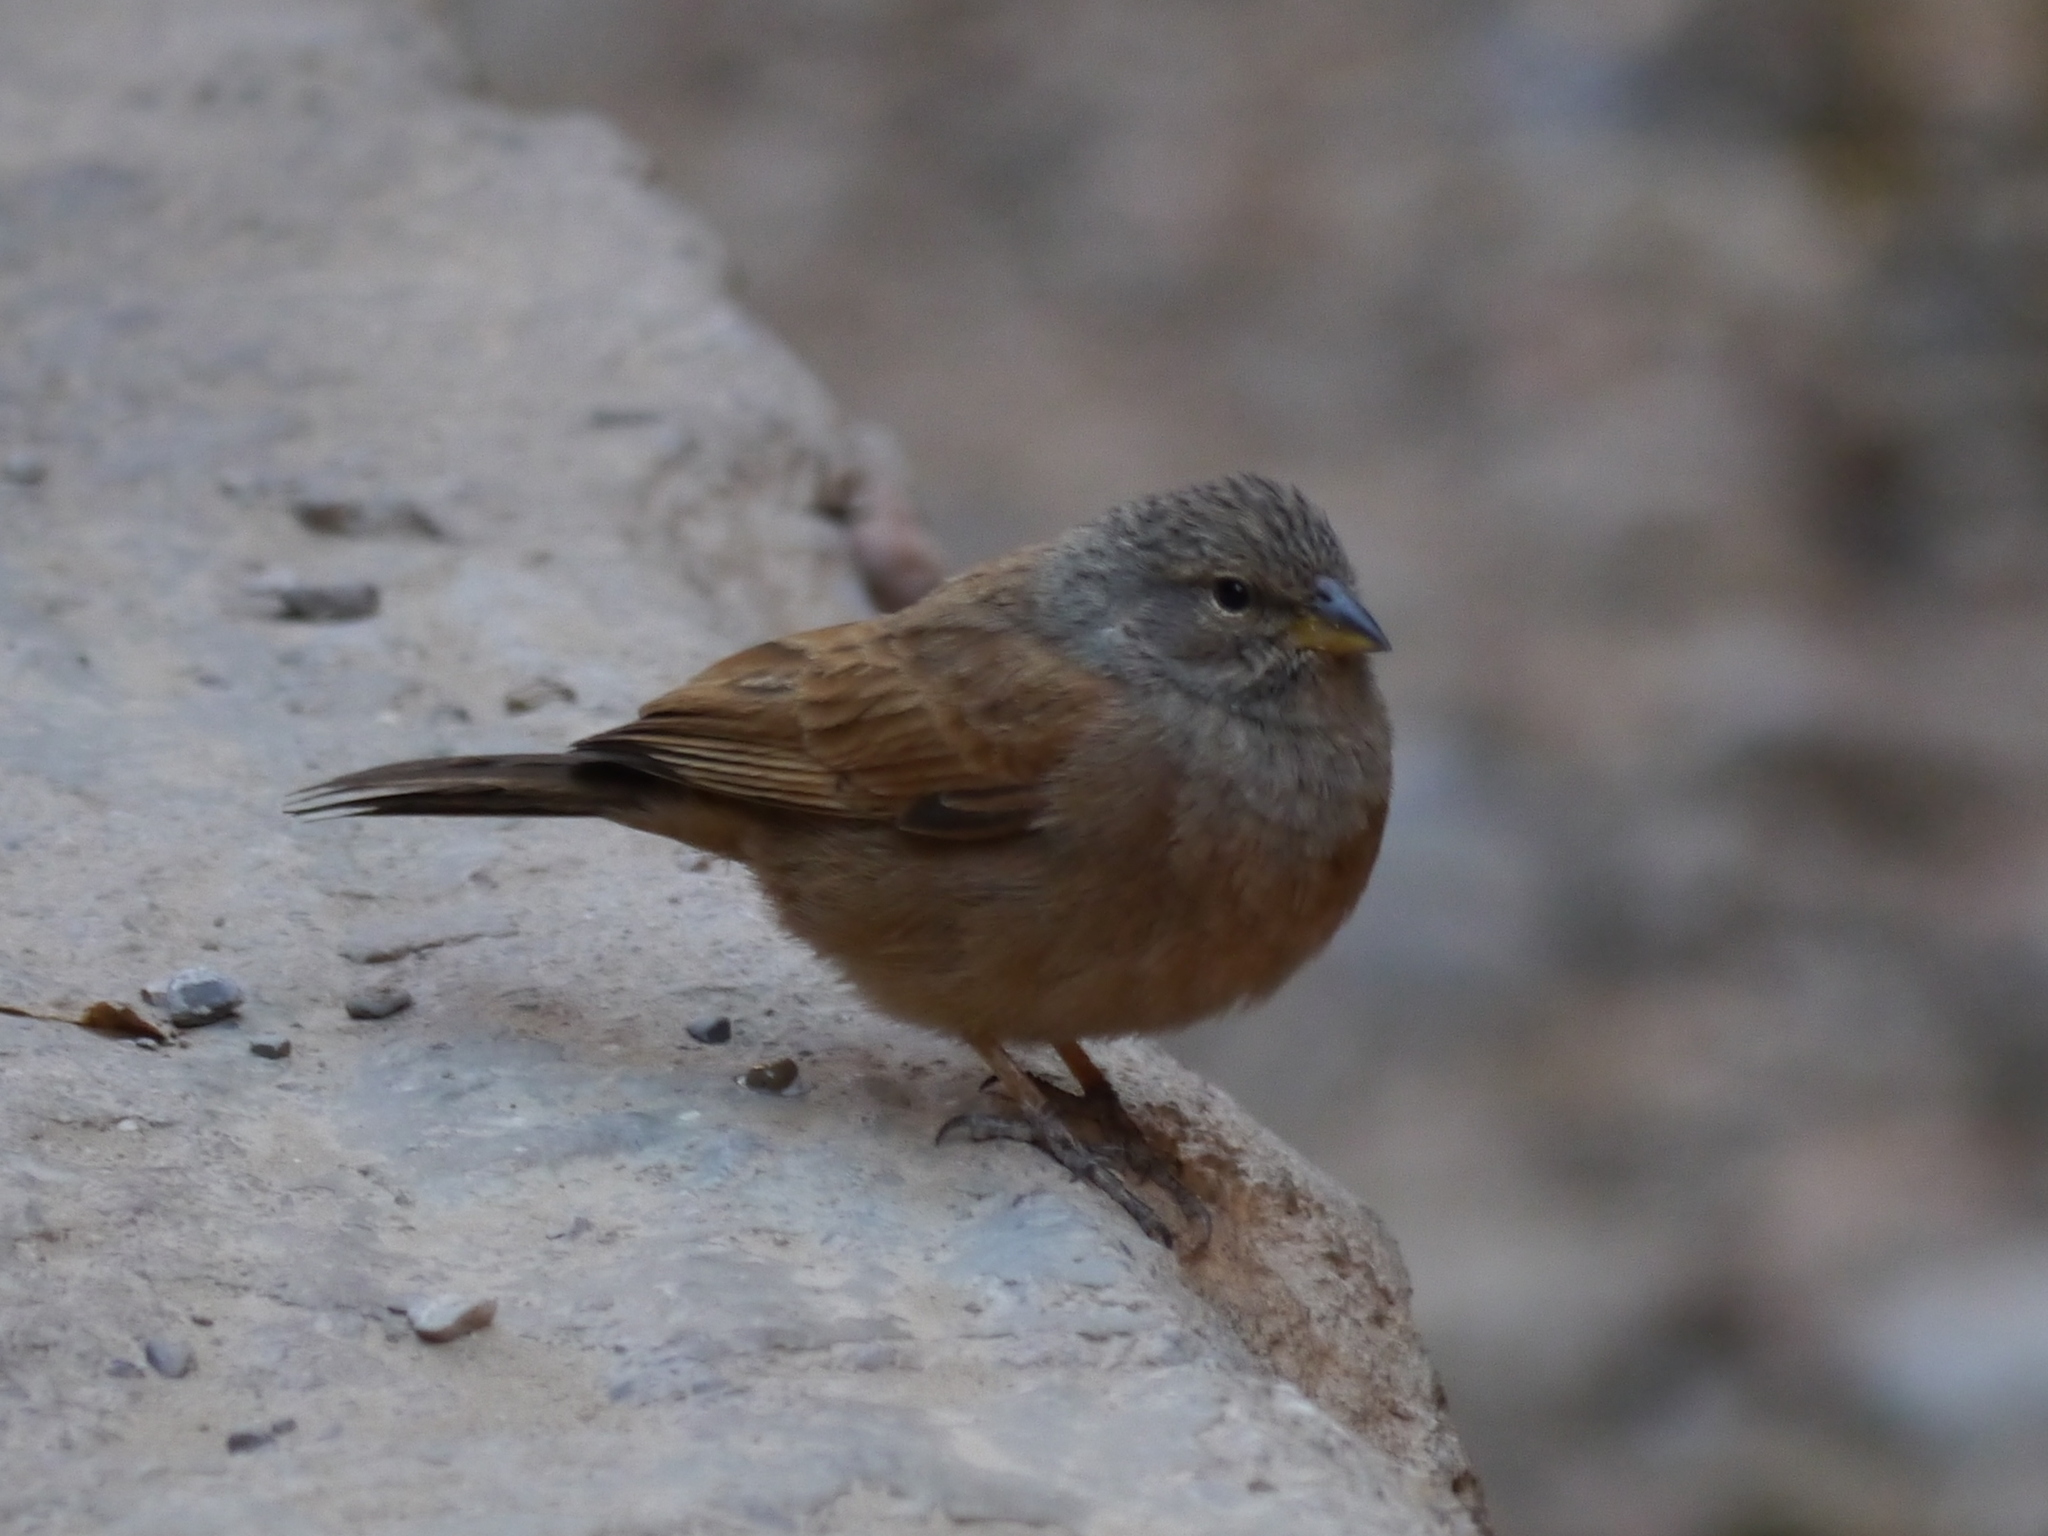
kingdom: Animalia
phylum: Chordata
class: Aves
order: Passeriformes
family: Emberizidae
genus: Emberiza
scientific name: Emberiza sahari
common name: House bunting
